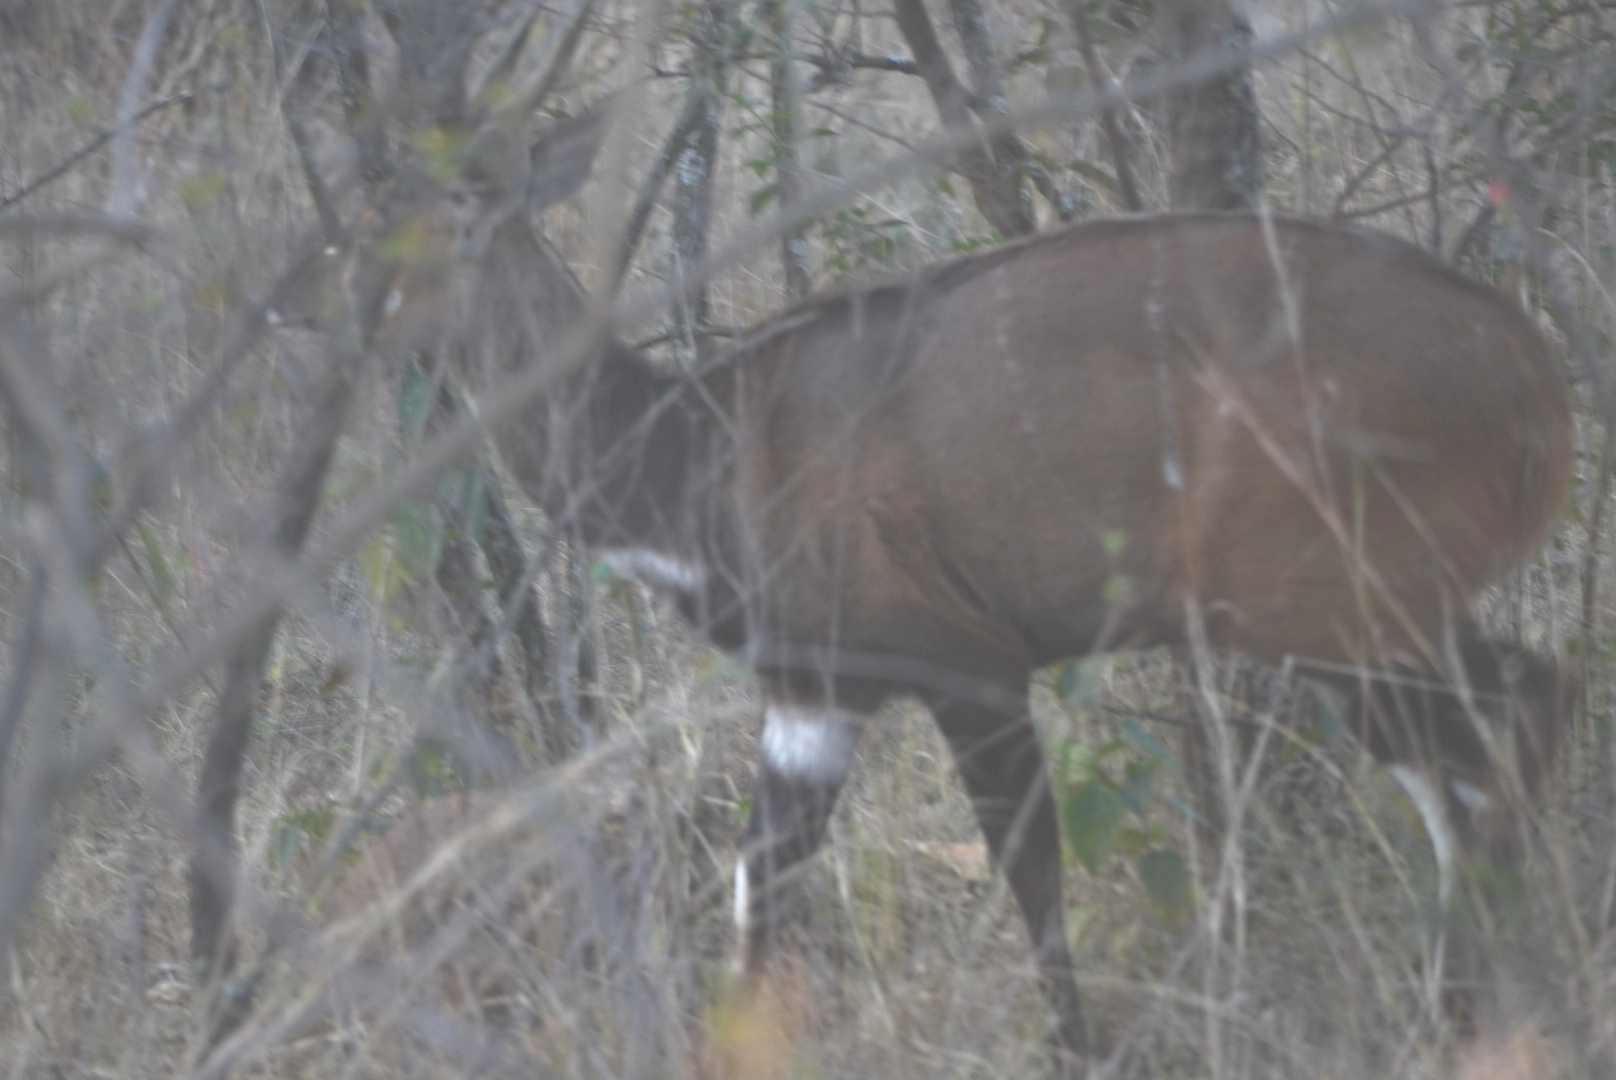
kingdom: Animalia
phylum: Chordata
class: Mammalia
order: Artiodactyla
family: Bovidae
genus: Tragelaphus
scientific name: Tragelaphus scriptus
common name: Bushbuck
